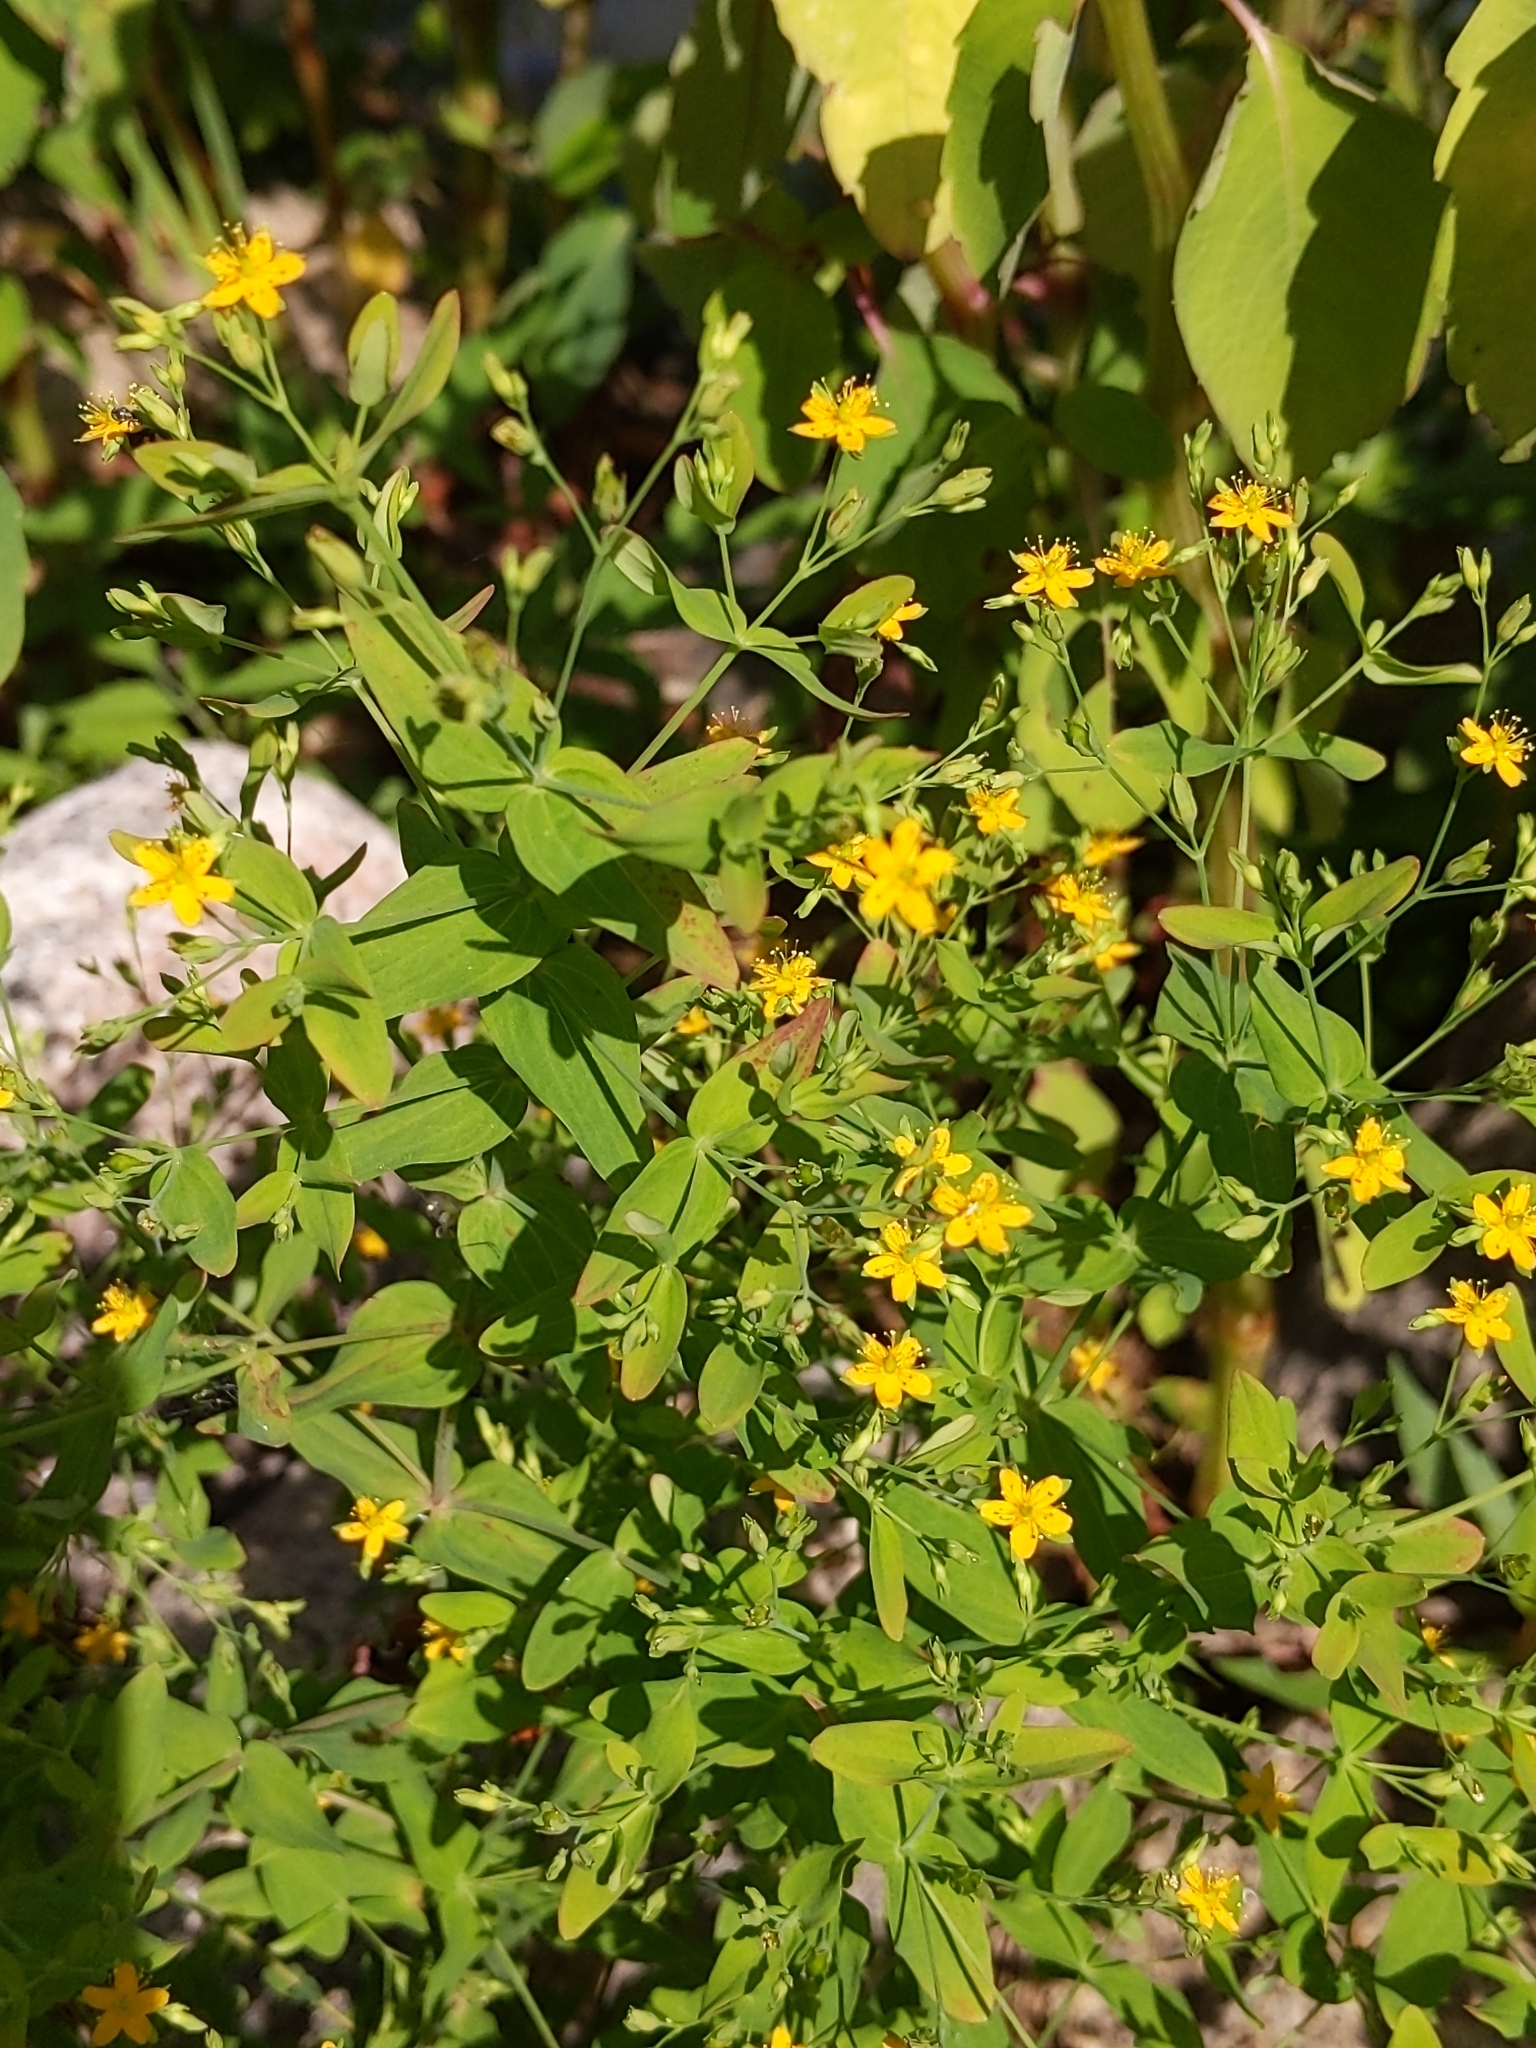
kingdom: Plantae
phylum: Tracheophyta
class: Magnoliopsida
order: Malpighiales
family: Hypericaceae
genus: Hypericum
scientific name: Hypericum mutilum
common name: Dwarf st. john's-wort
